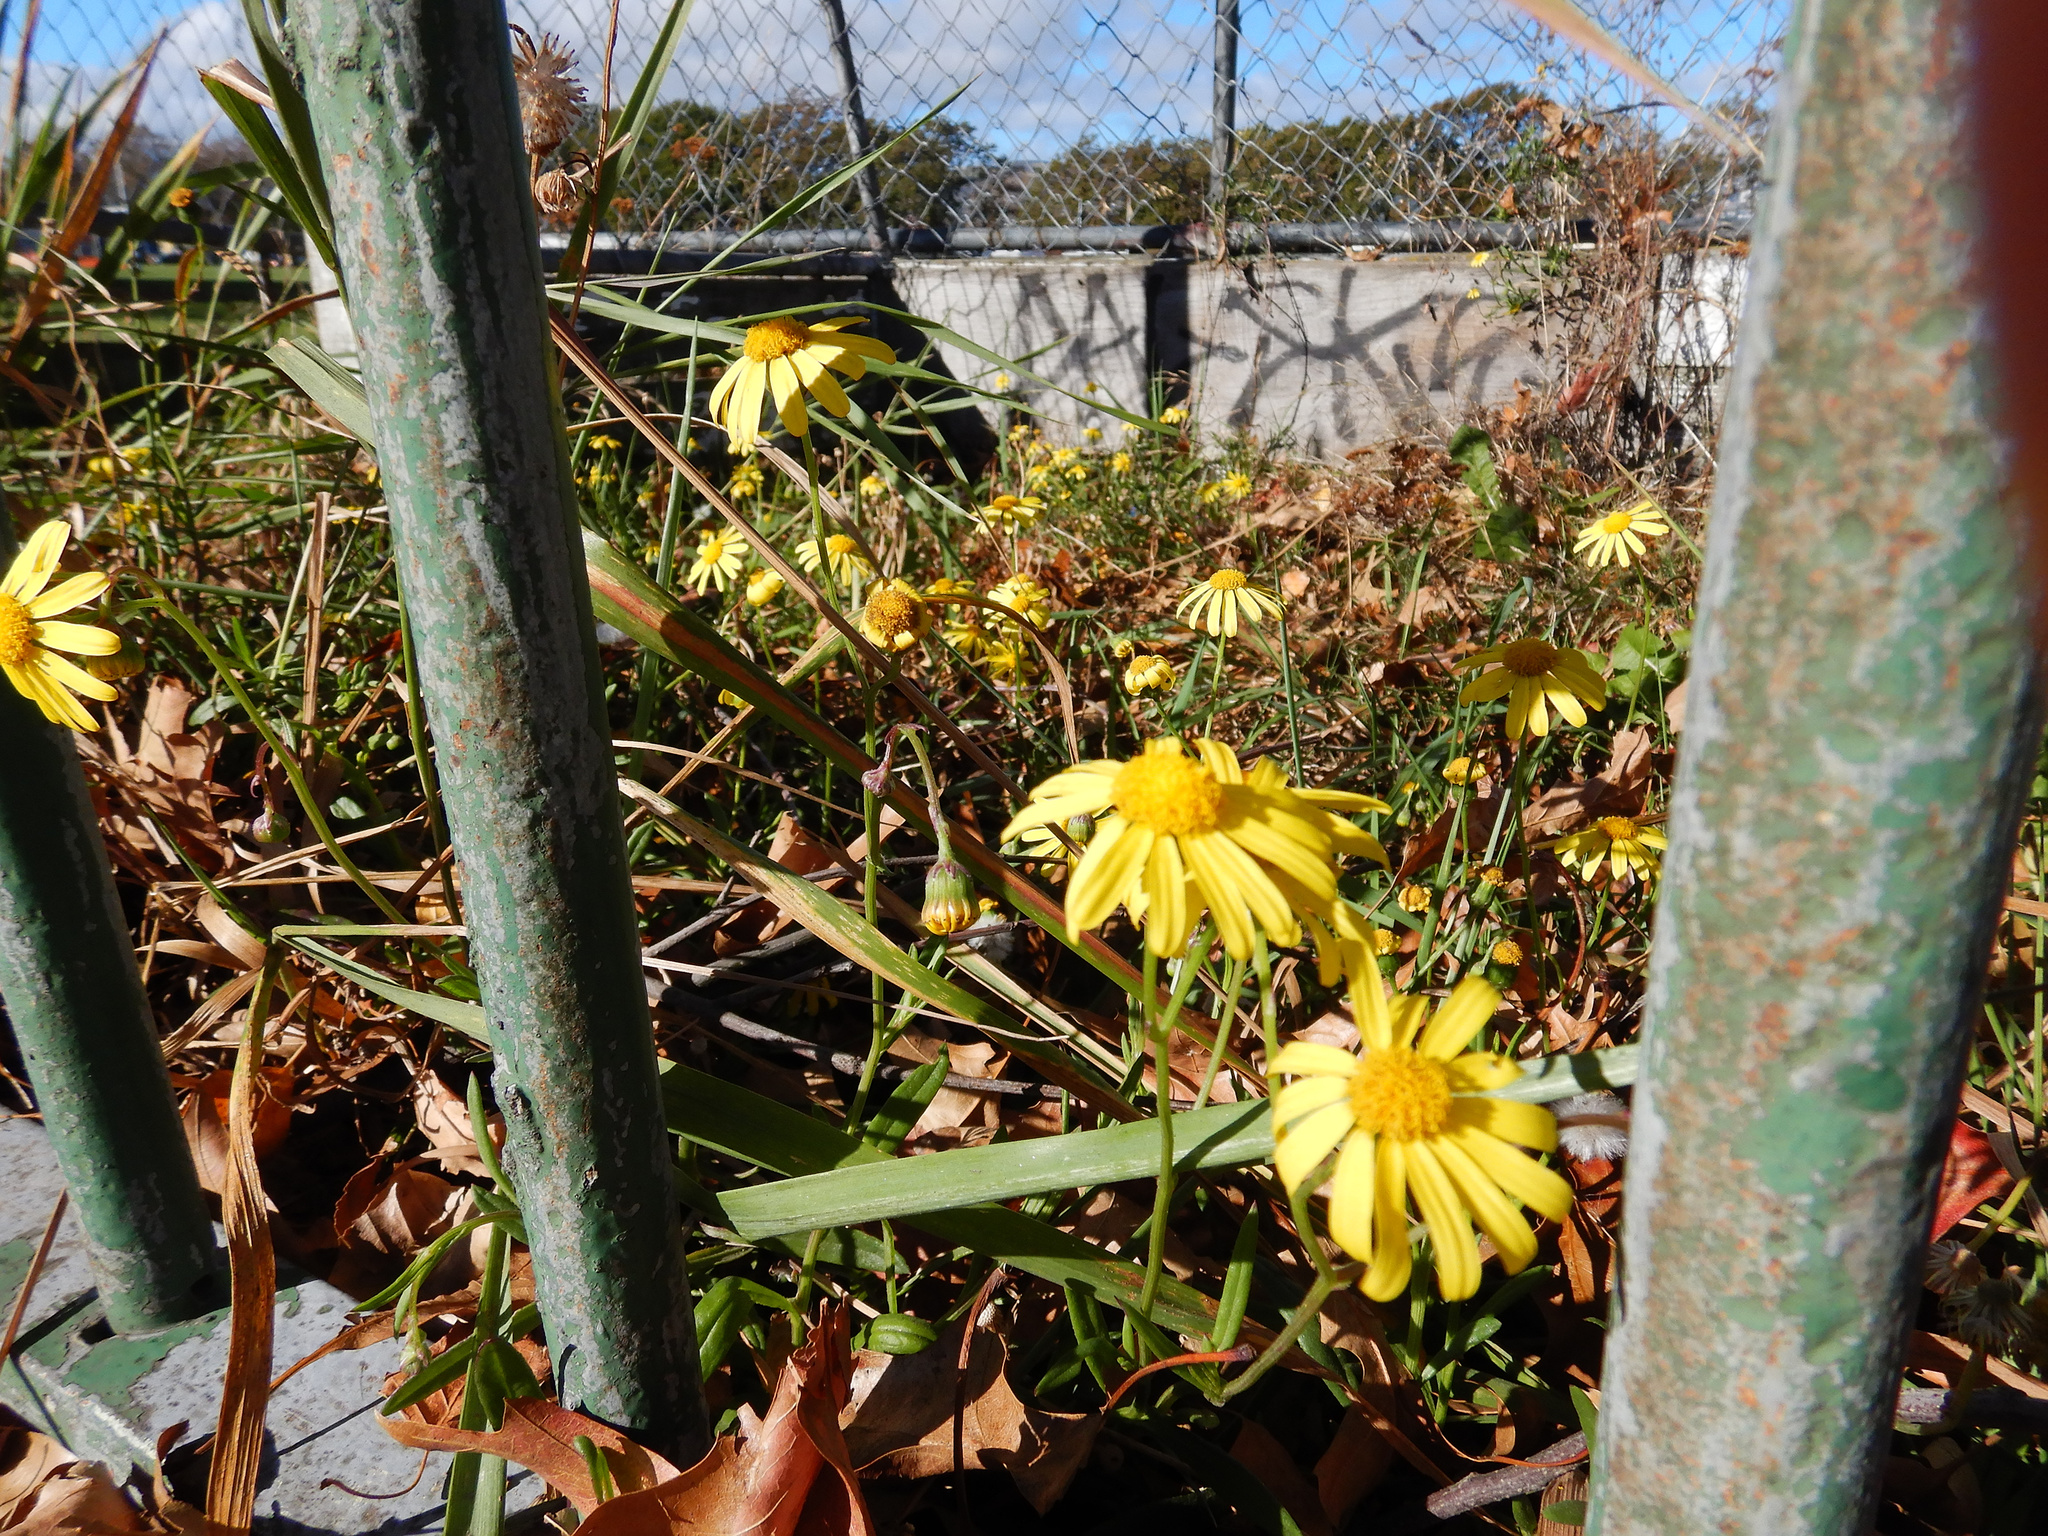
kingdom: Plantae
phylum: Tracheophyta
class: Magnoliopsida
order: Asterales
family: Asteraceae
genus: Senecio
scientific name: Senecio skirrhodon
